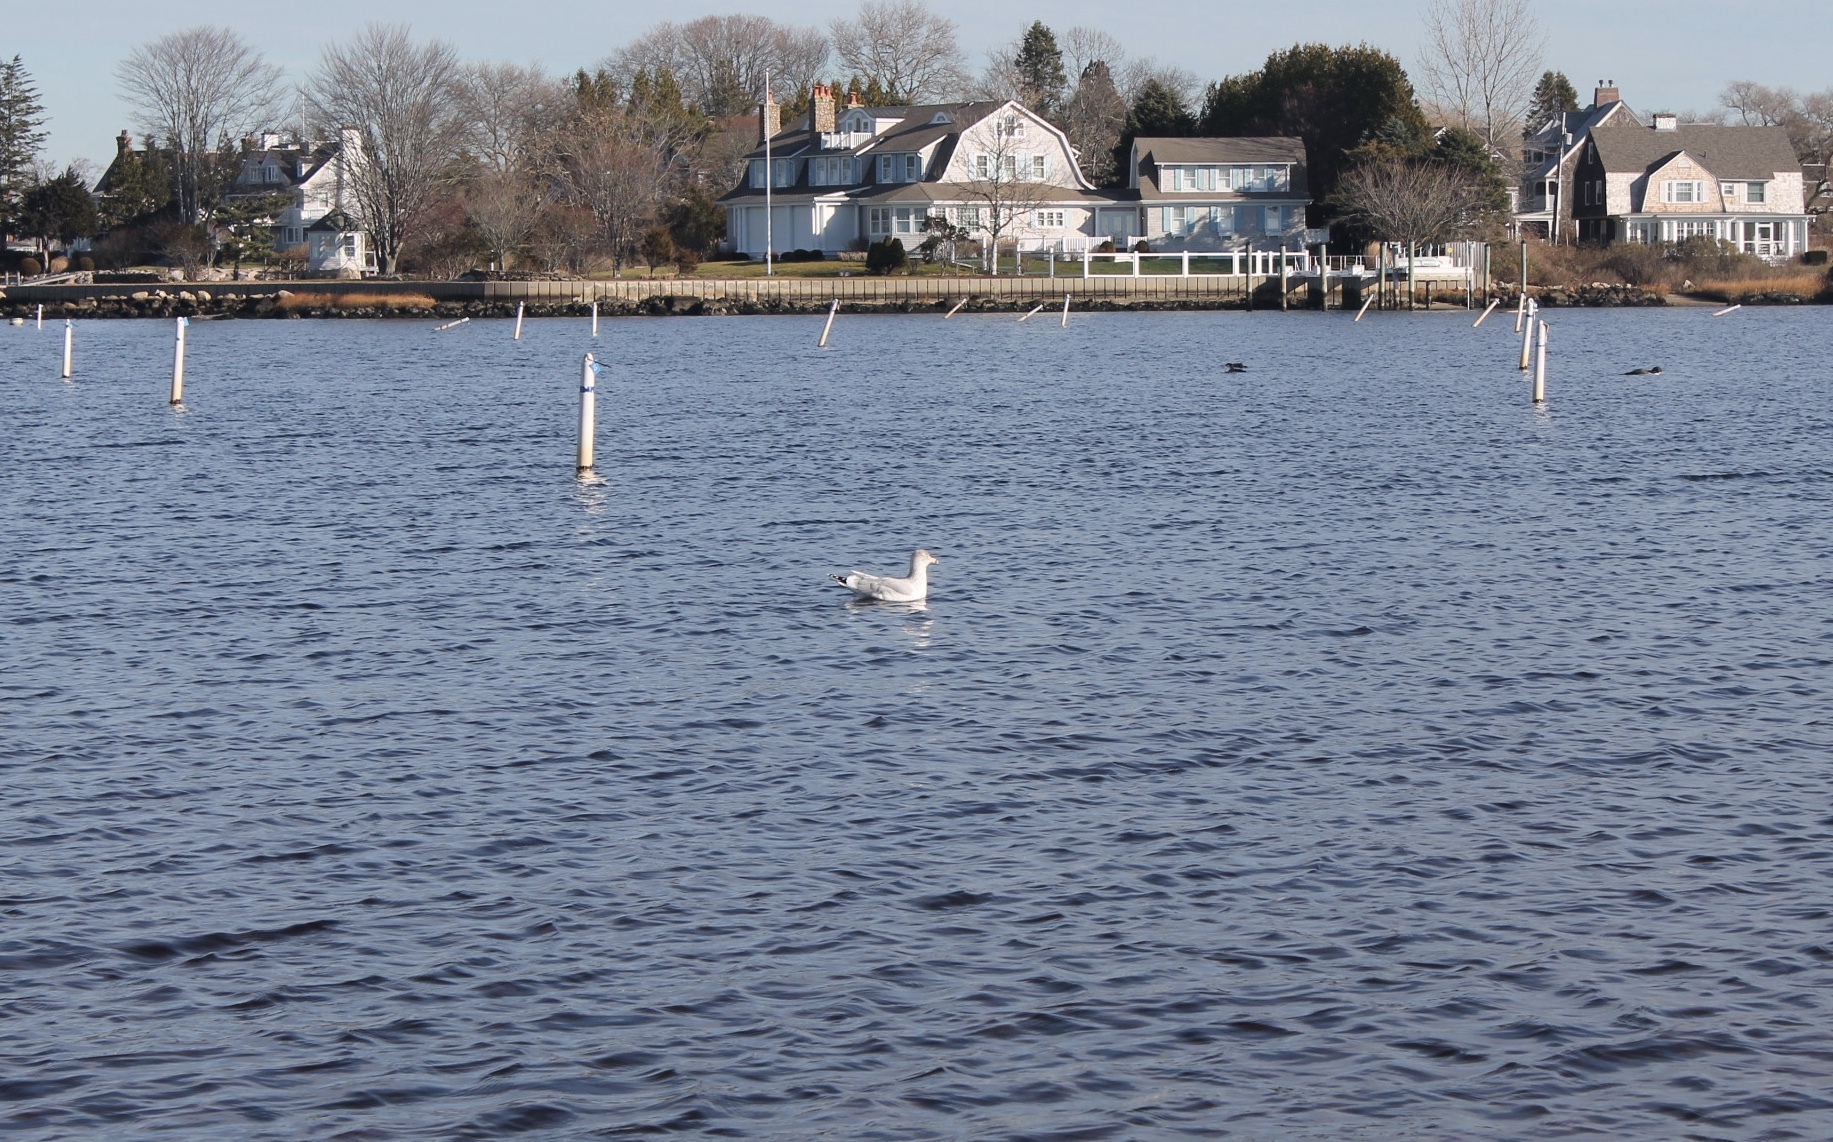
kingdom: Animalia
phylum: Chordata
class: Aves
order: Charadriiformes
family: Laridae
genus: Larus
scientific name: Larus argentatus
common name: Herring gull
